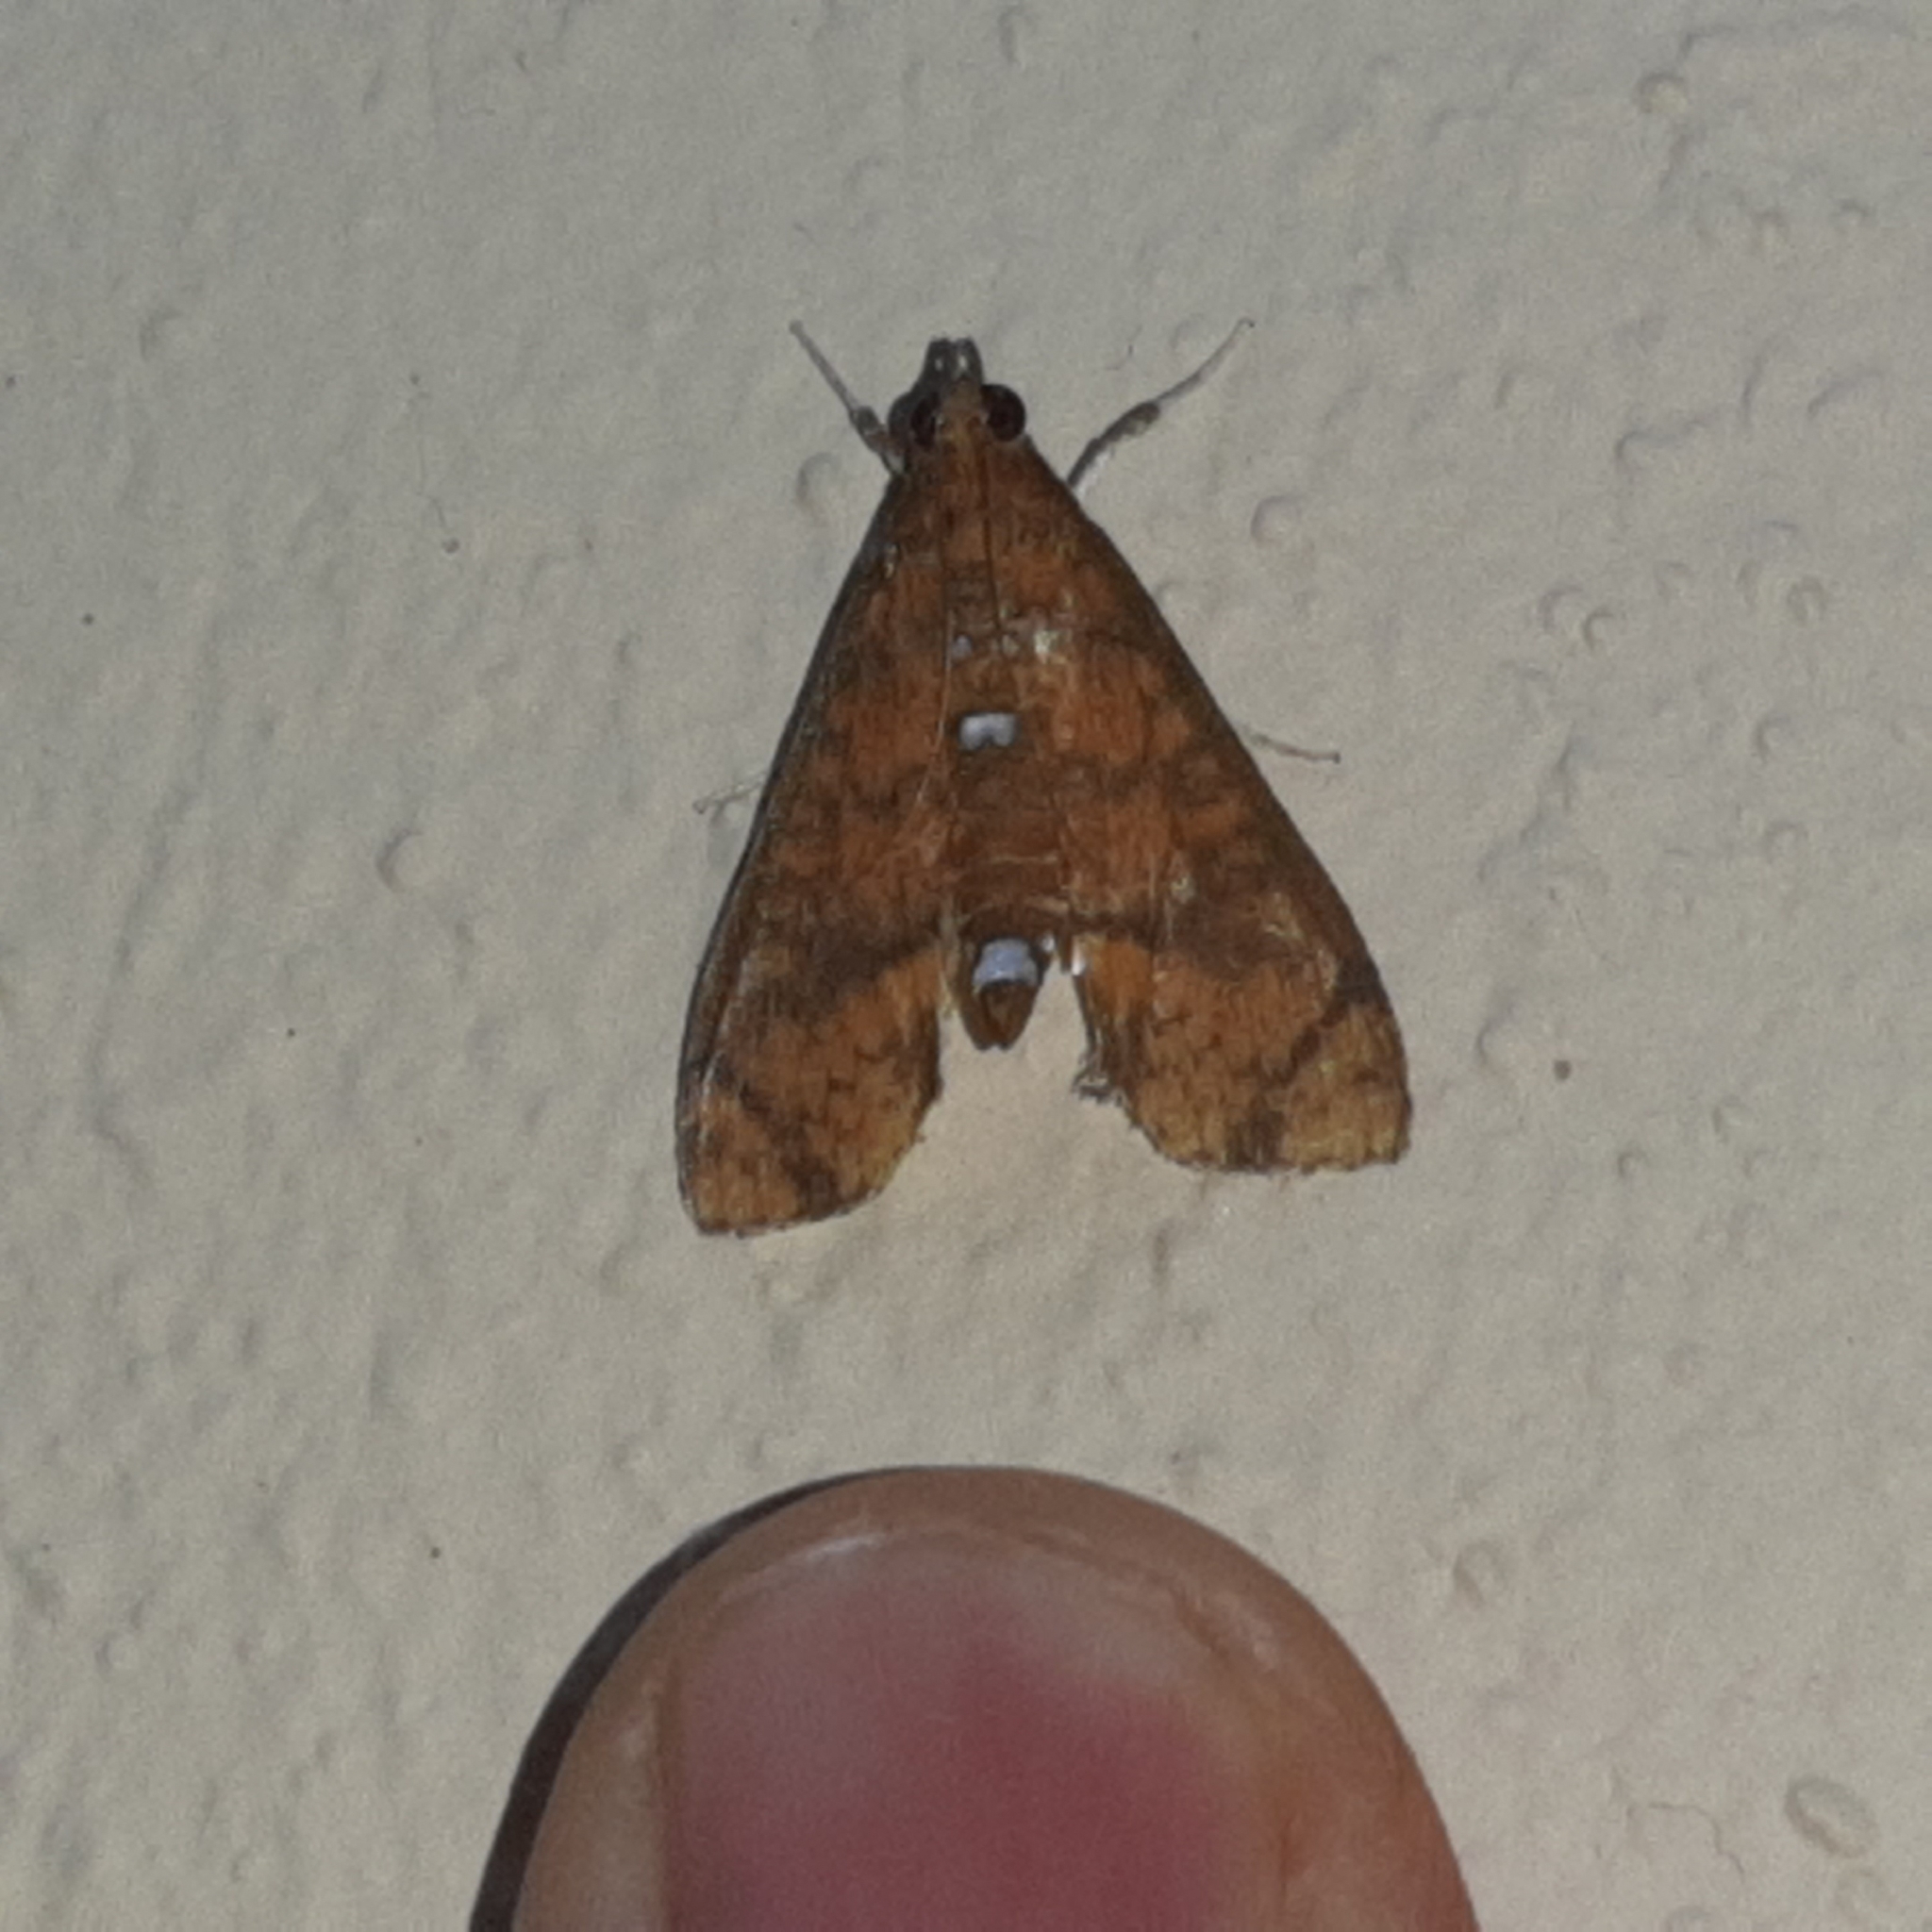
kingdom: Animalia
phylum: Arthropoda
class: Insecta
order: Lepidoptera
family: Crambidae
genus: Liopasia
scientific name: Liopasia ochracealis
